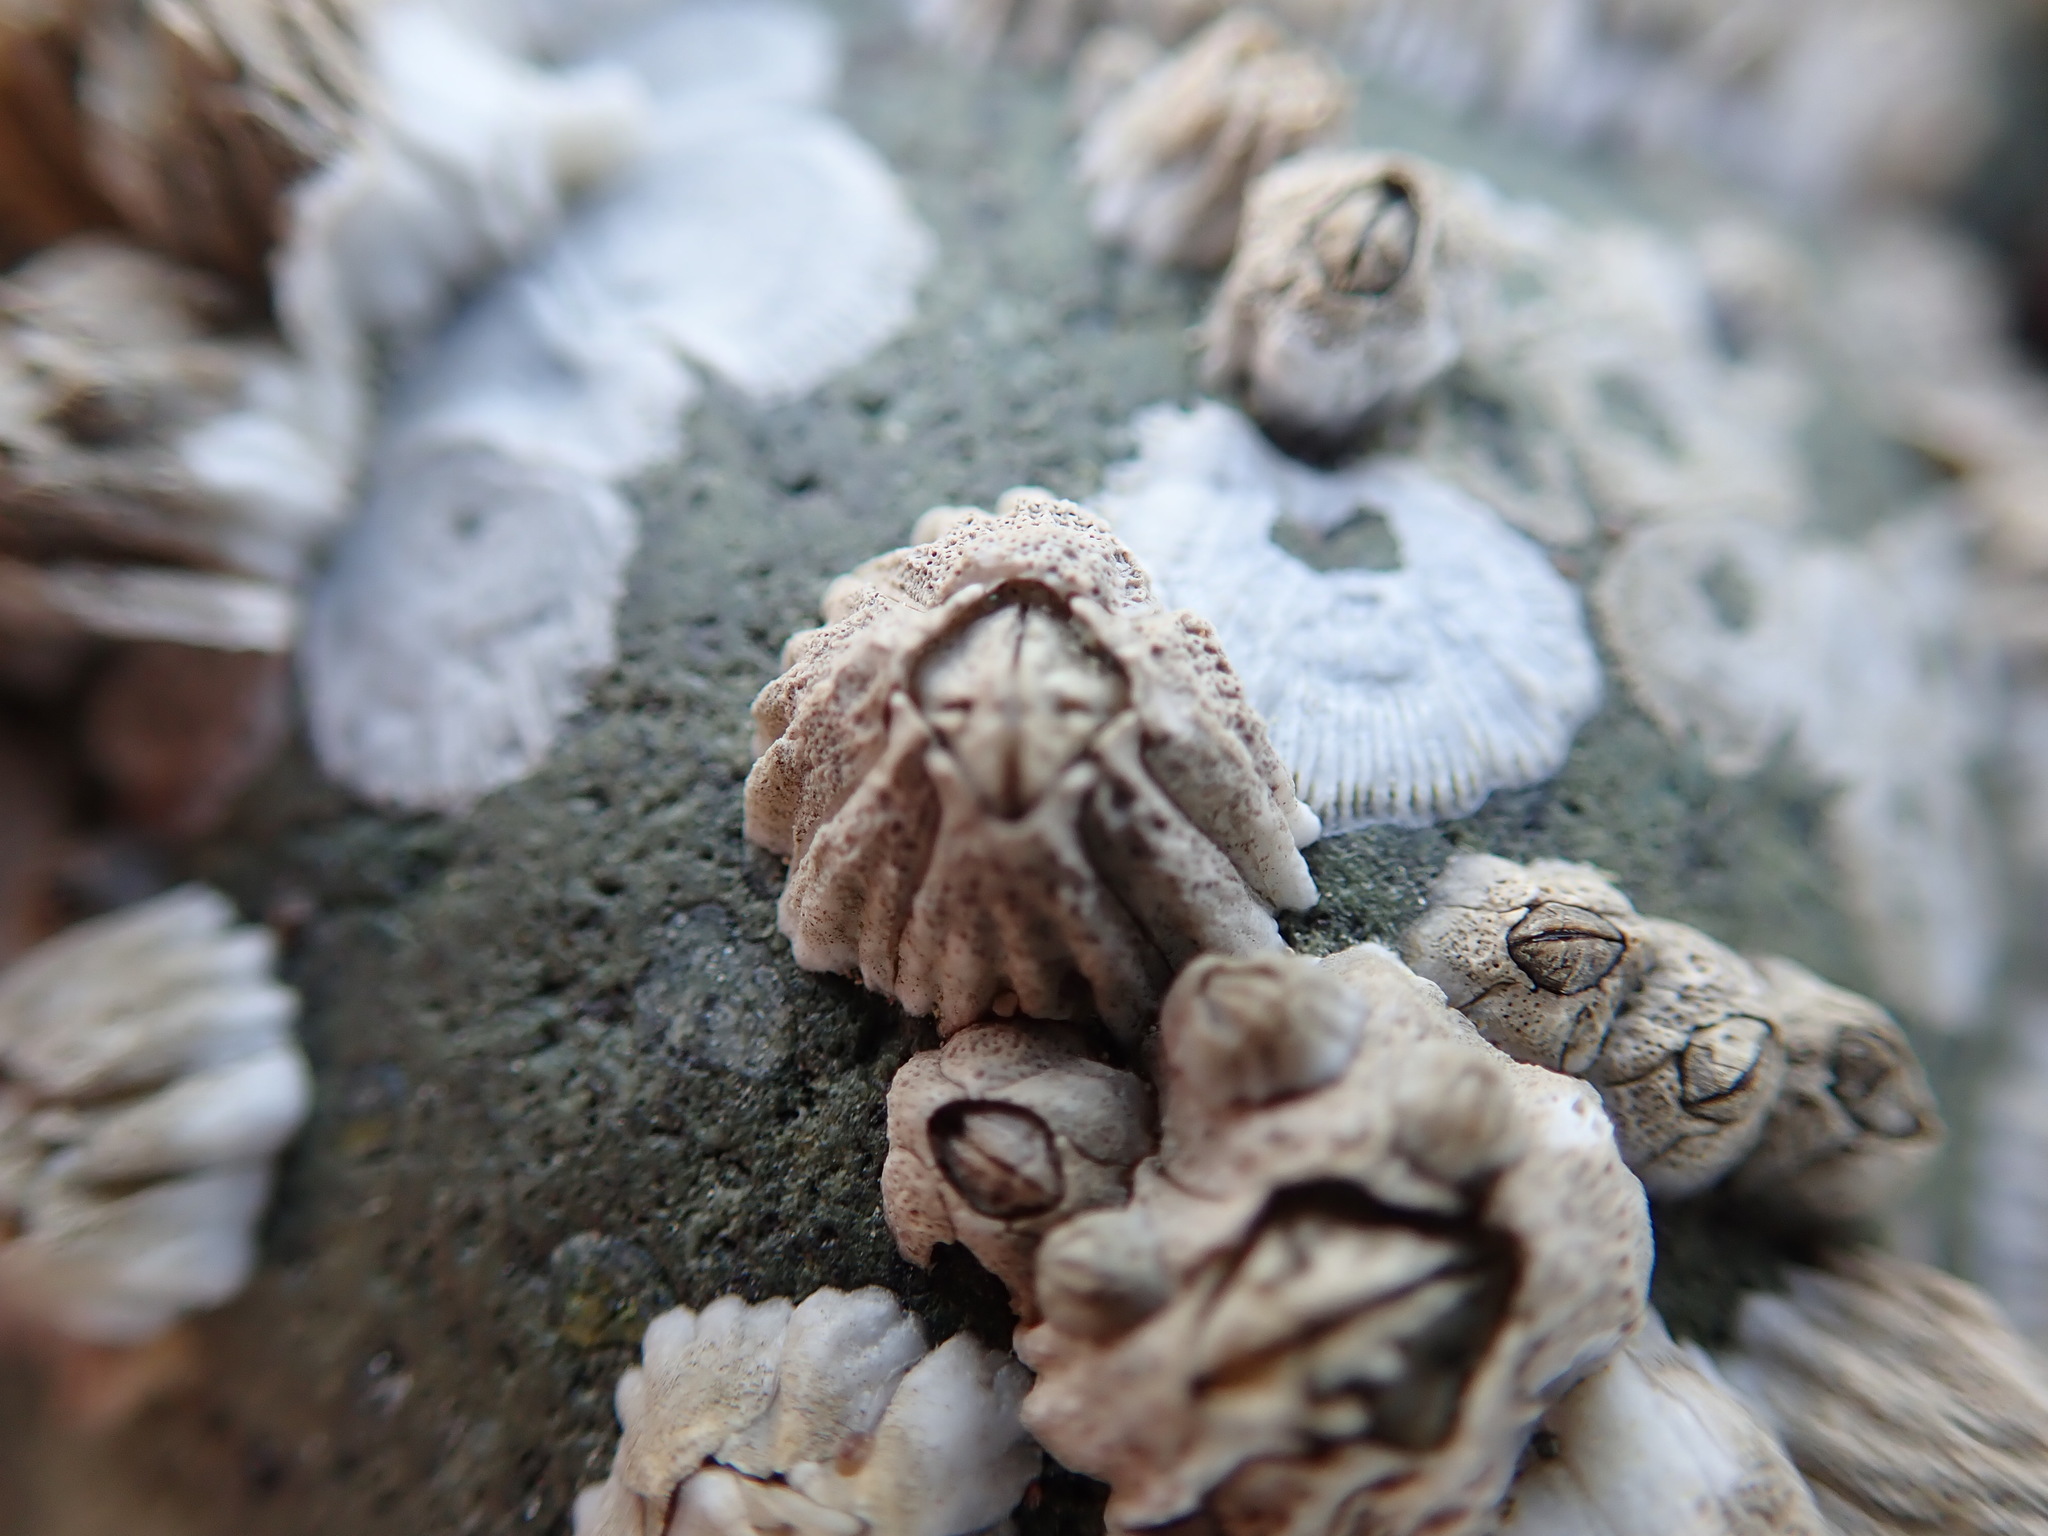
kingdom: Animalia
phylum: Arthropoda
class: Maxillopoda
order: Sessilia
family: Balanidae
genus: Balanus
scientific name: Balanus glandula
